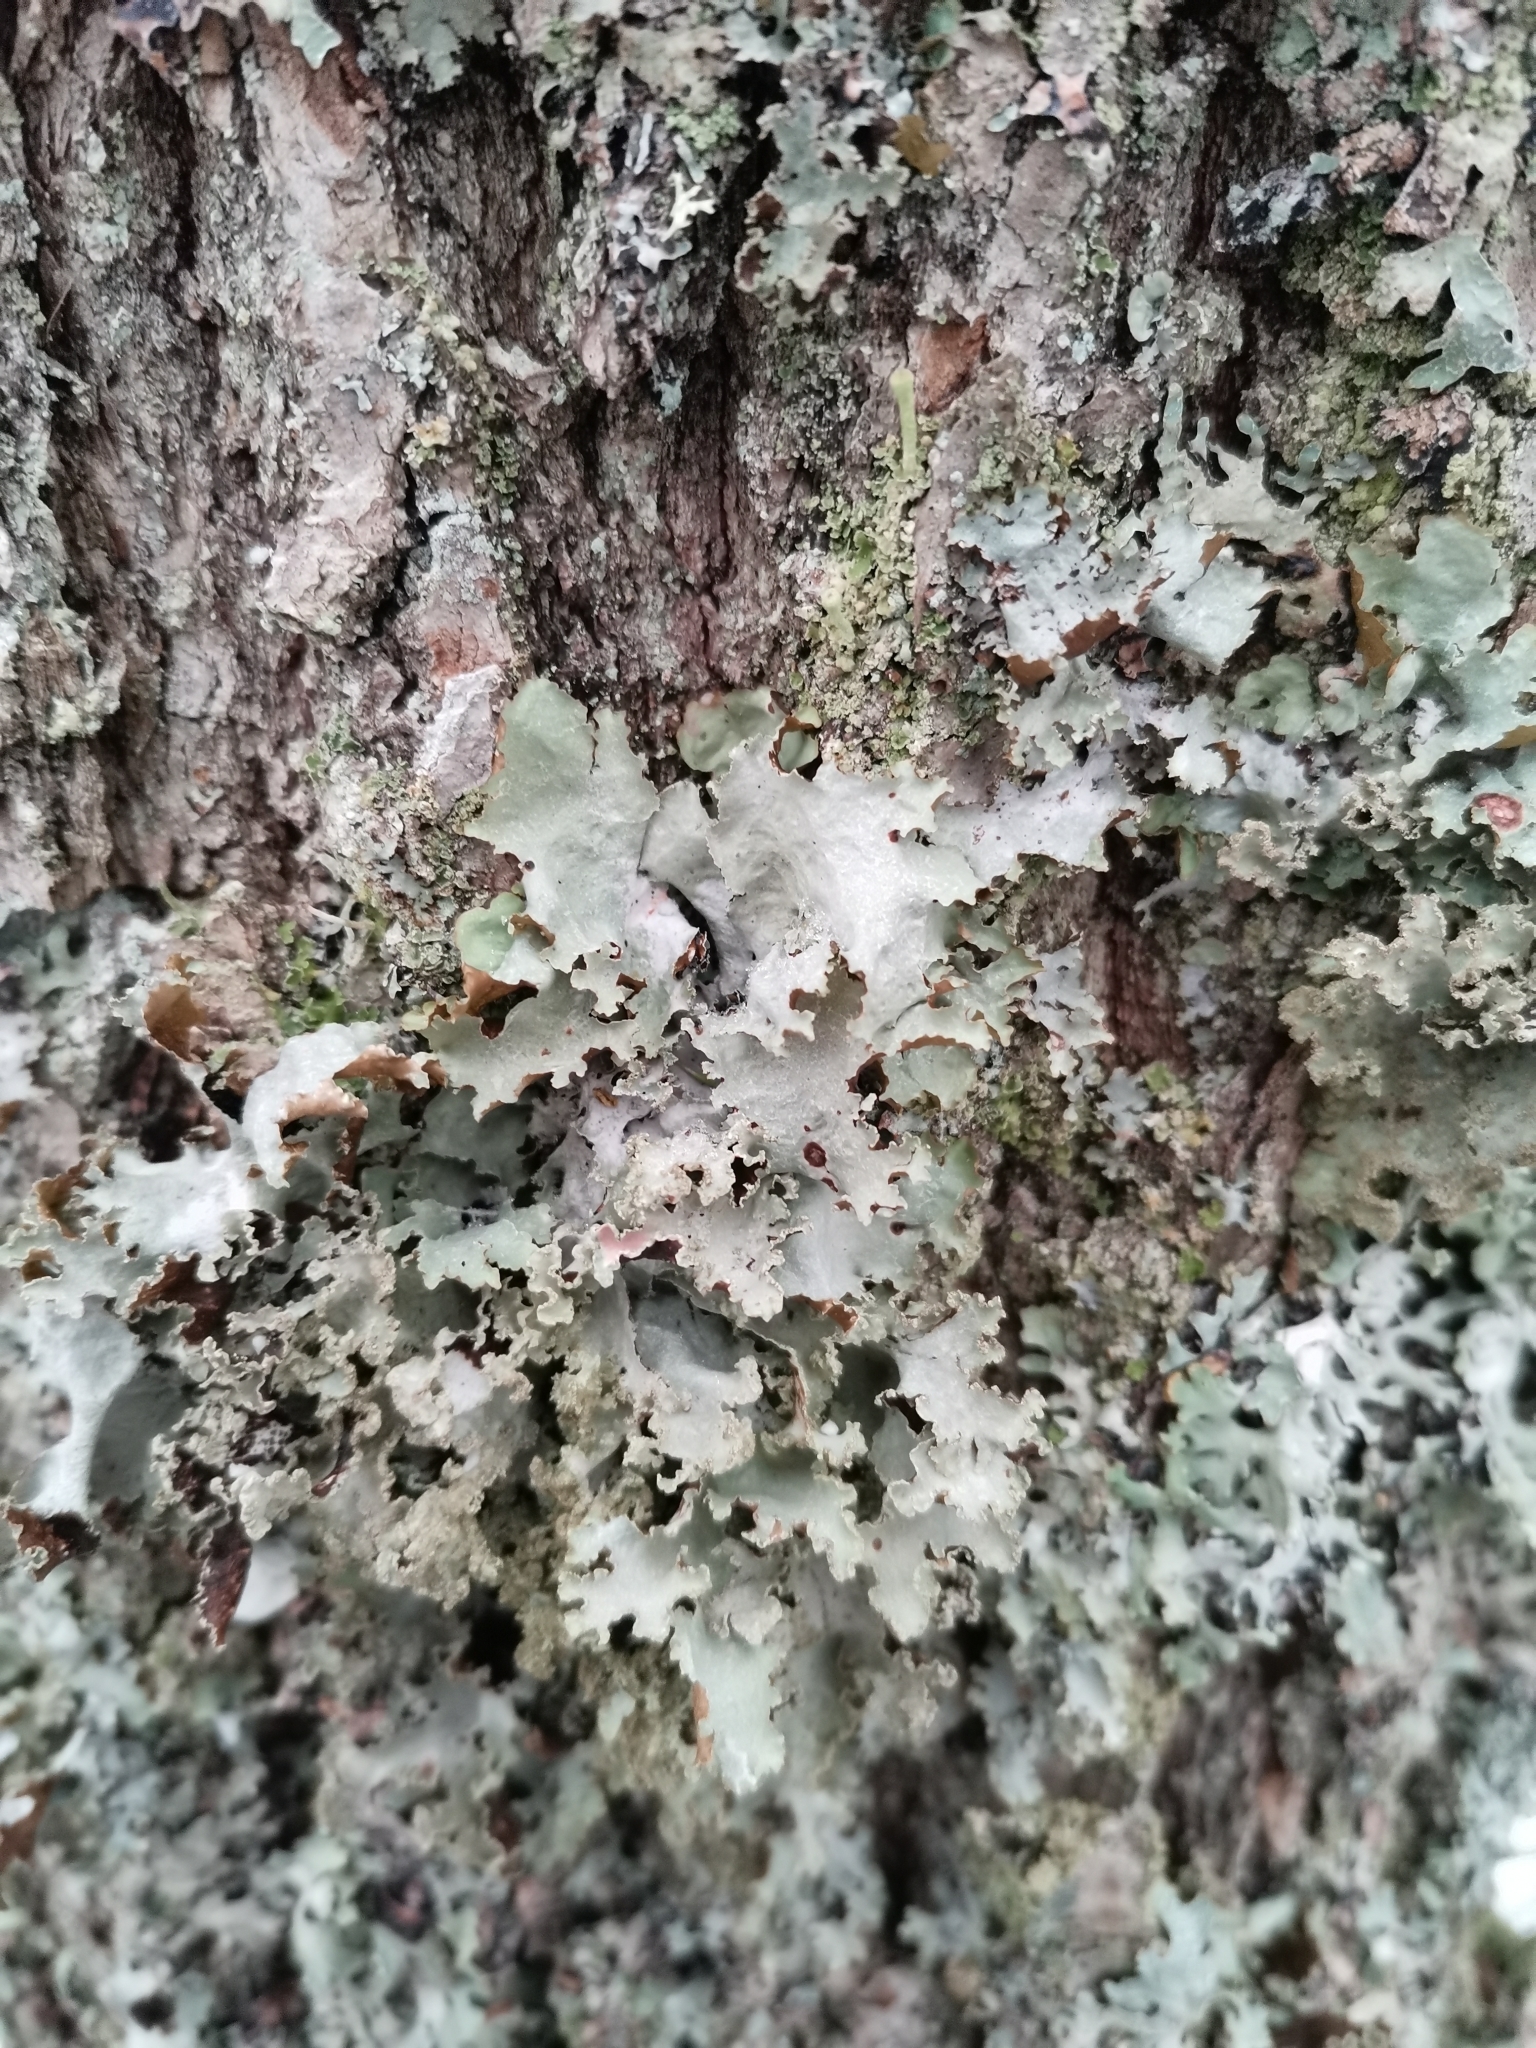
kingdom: Fungi
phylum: Ascomycota
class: Lecanoromycetes
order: Lecanorales
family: Parmeliaceae
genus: Platismatia
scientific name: Platismatia glauca
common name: Varied rag lichen
